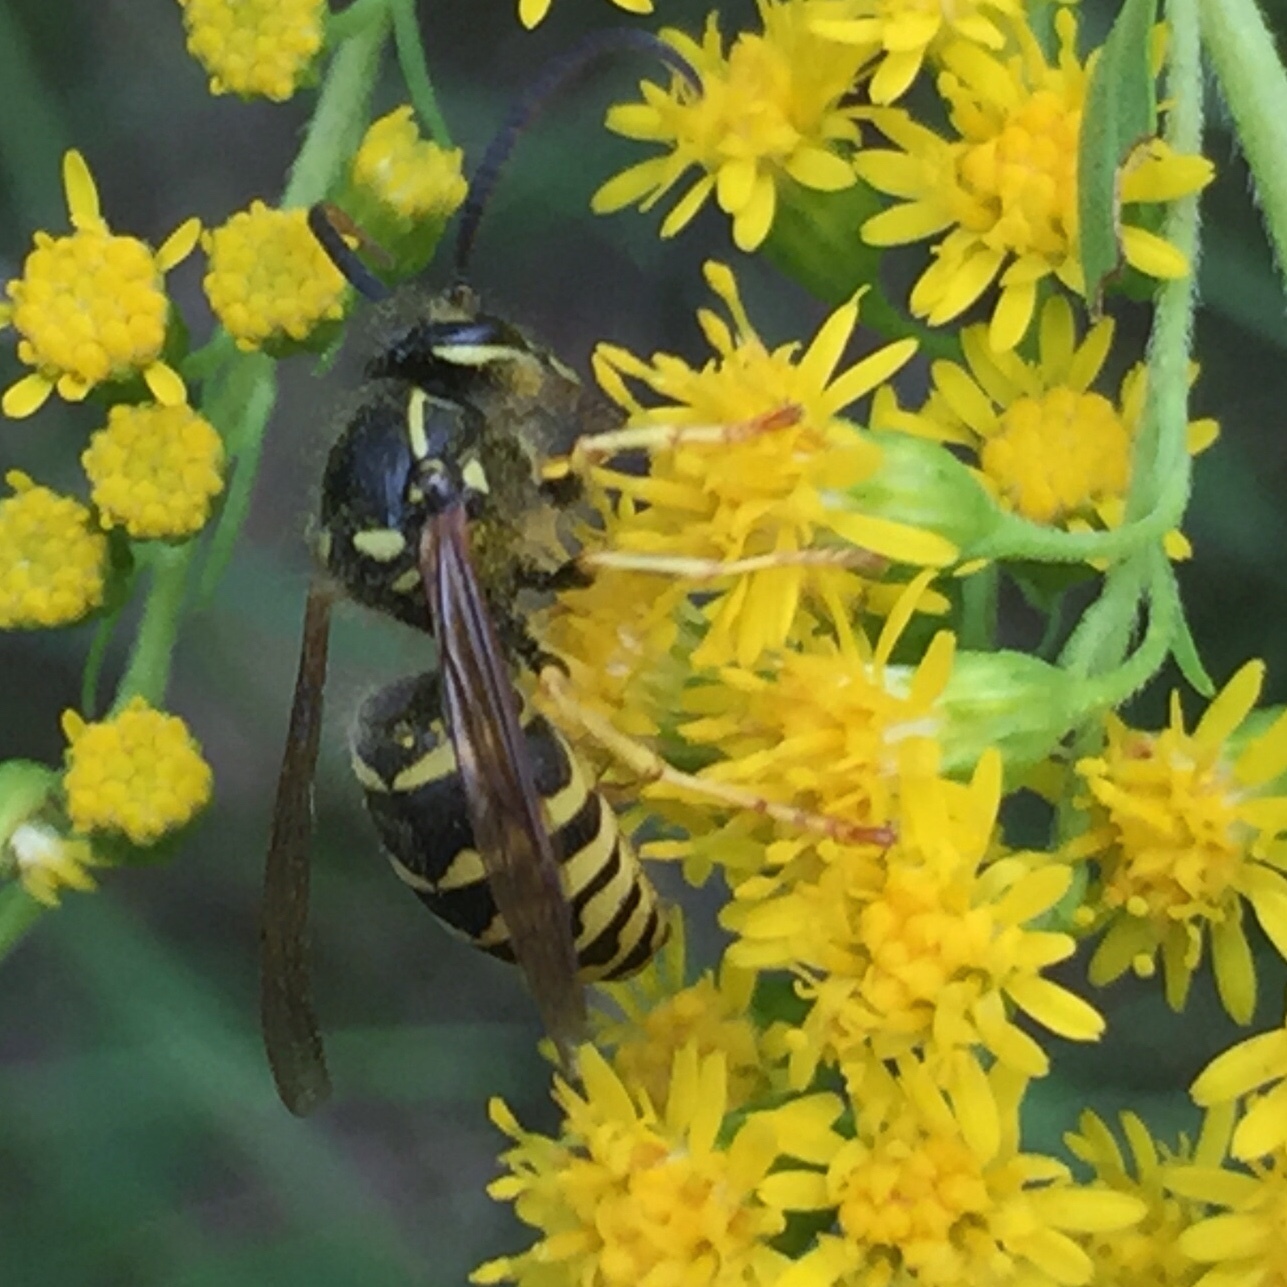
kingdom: Animalia
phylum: Arthropoda
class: Insecta
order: Hymenoptera
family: Vespidae
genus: Dolichovespula
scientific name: Dolichovespula arenaria
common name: Aerial yellowjacket
